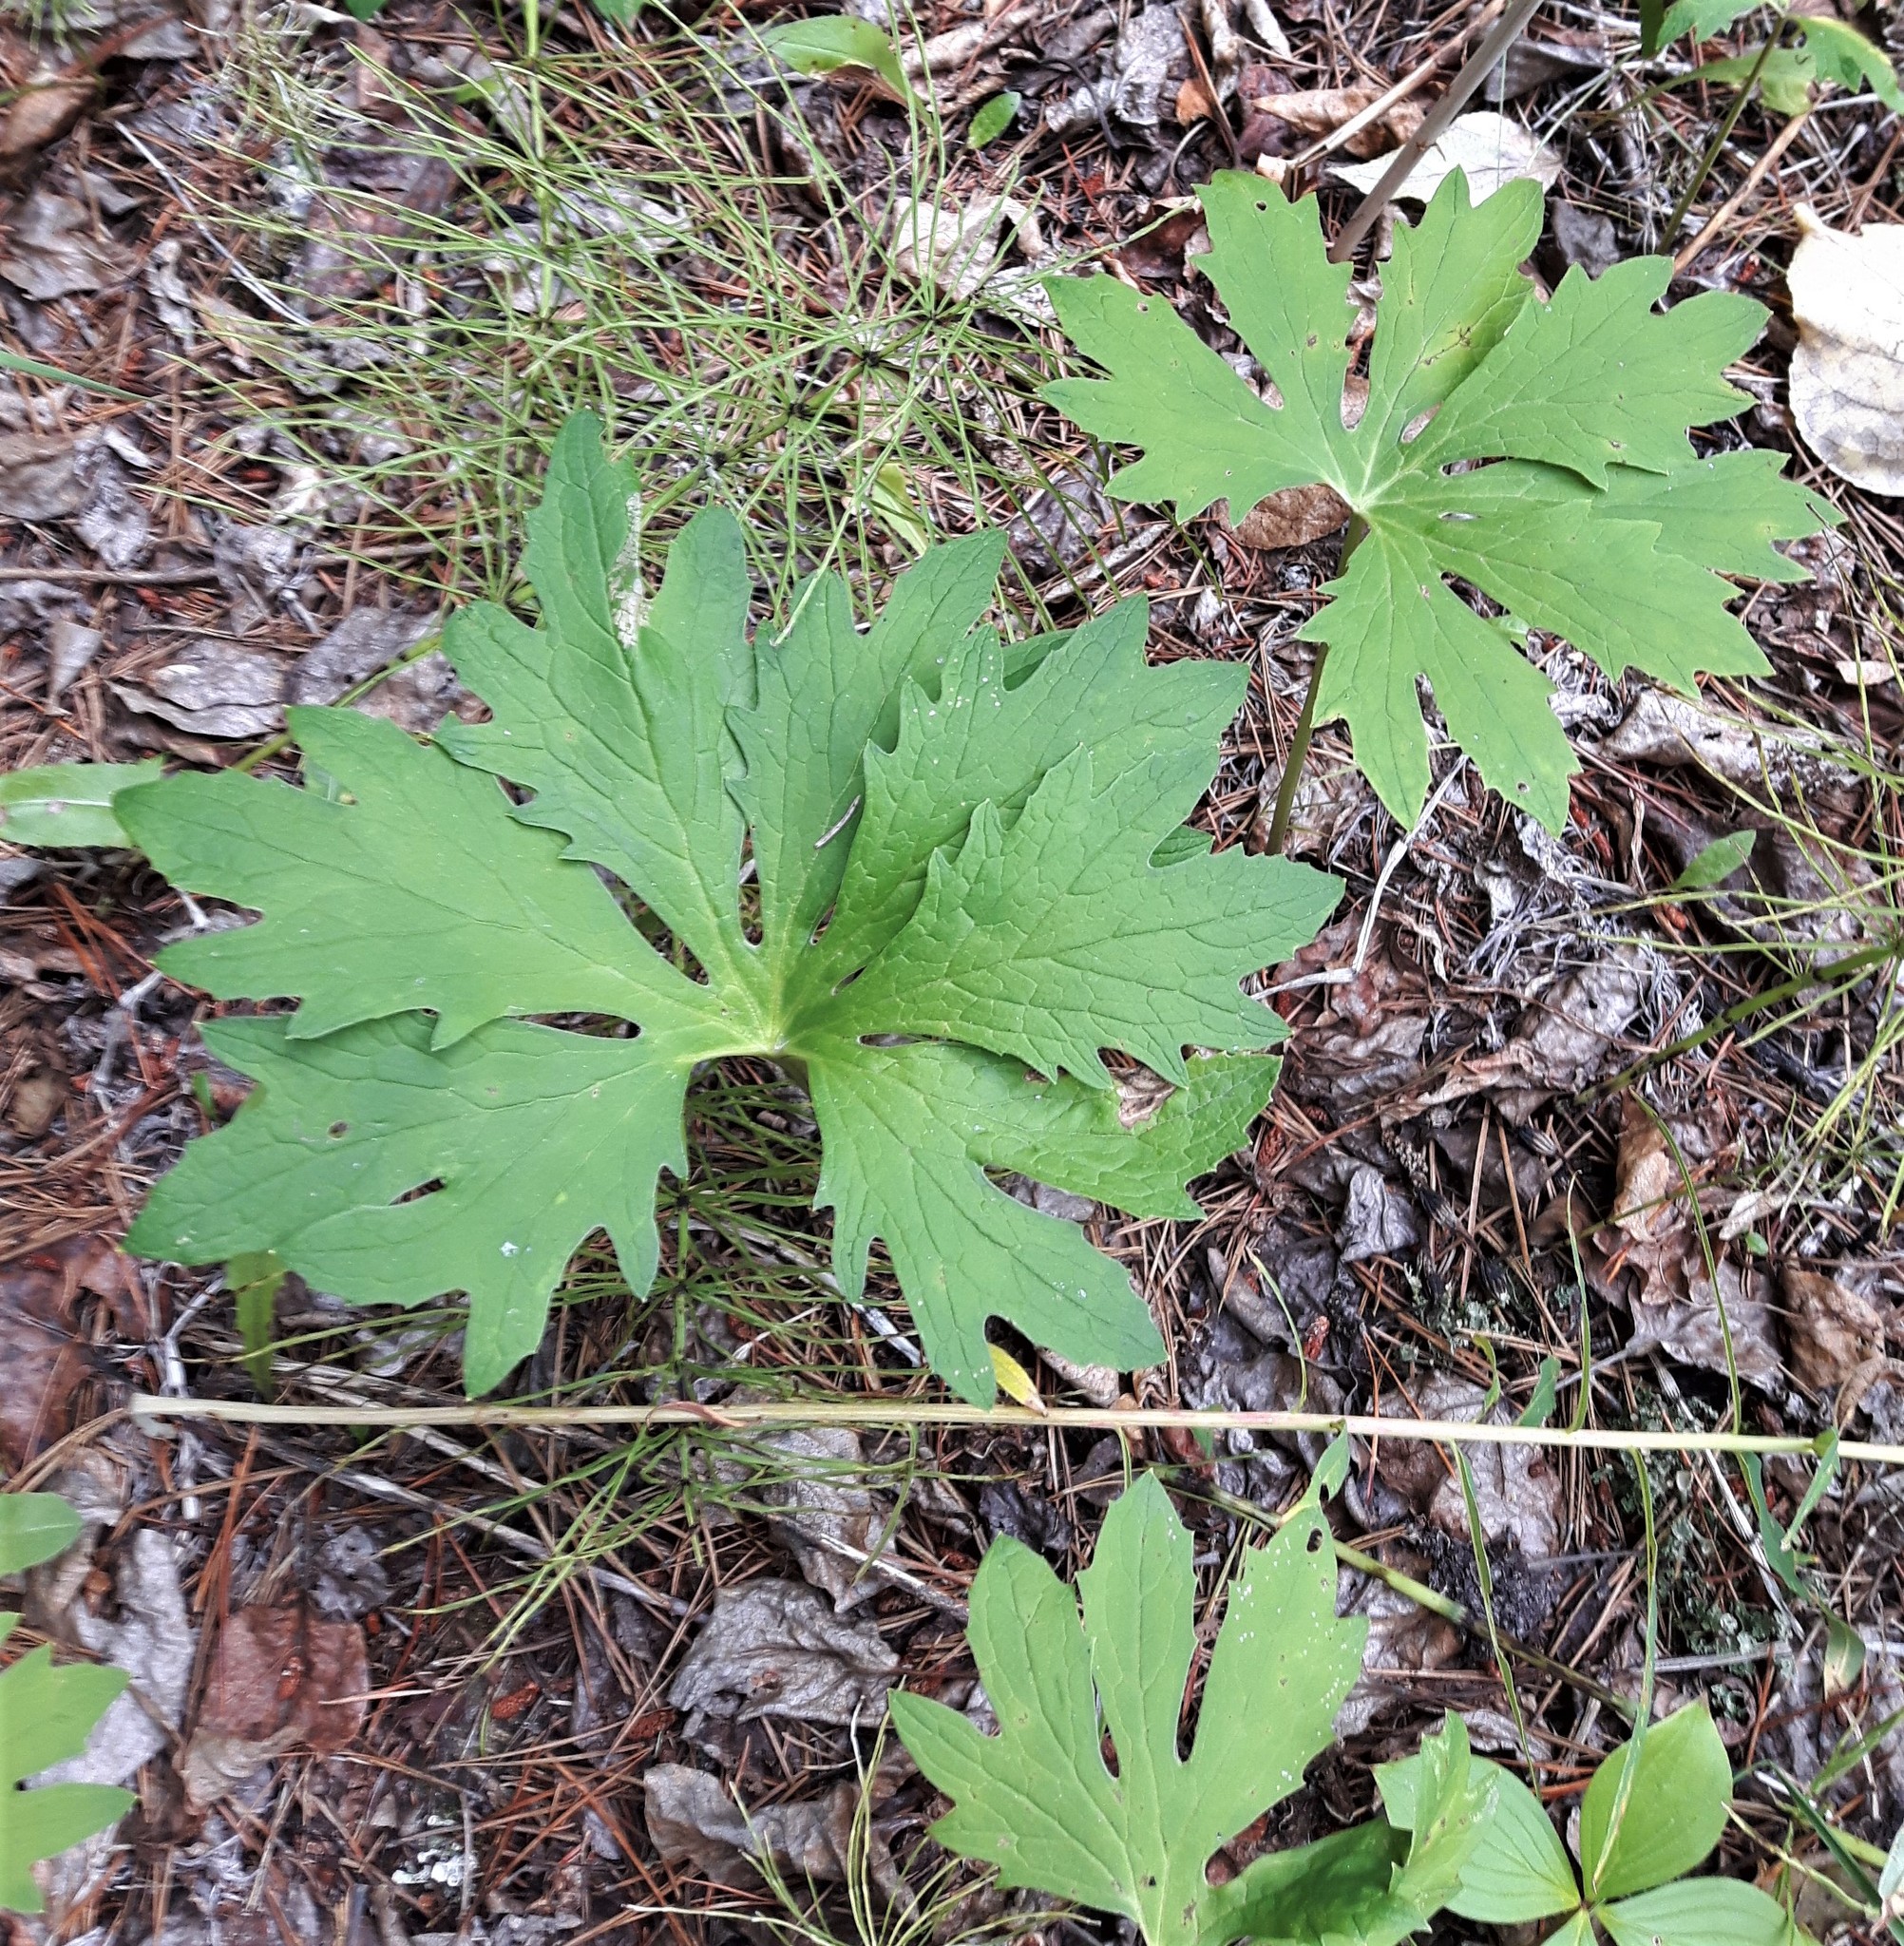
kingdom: Plantae
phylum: Tracheophyta
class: Magnoliopsida
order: Asterales
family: Asteraceae
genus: Petasites
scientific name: Petasites frigidus
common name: Arctic butterbur
